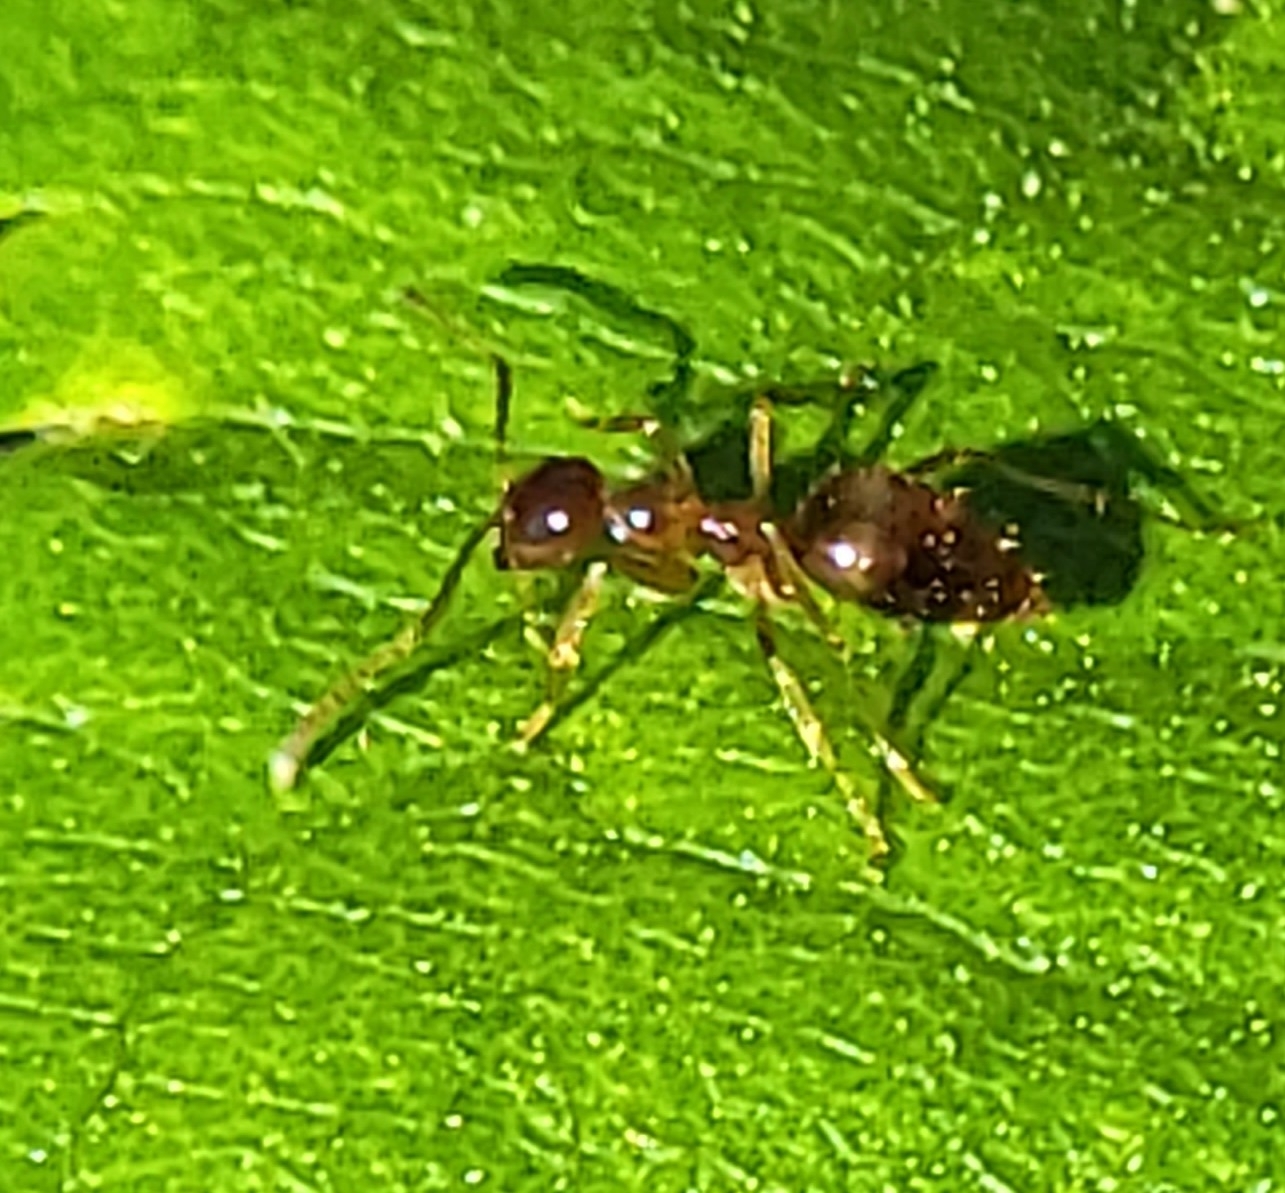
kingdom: Animalia
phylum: Arthropoda
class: Insecta
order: Hymenoptera
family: Formicidae
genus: Prenolepis
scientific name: Prenolepis imparis
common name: Small honey ant
